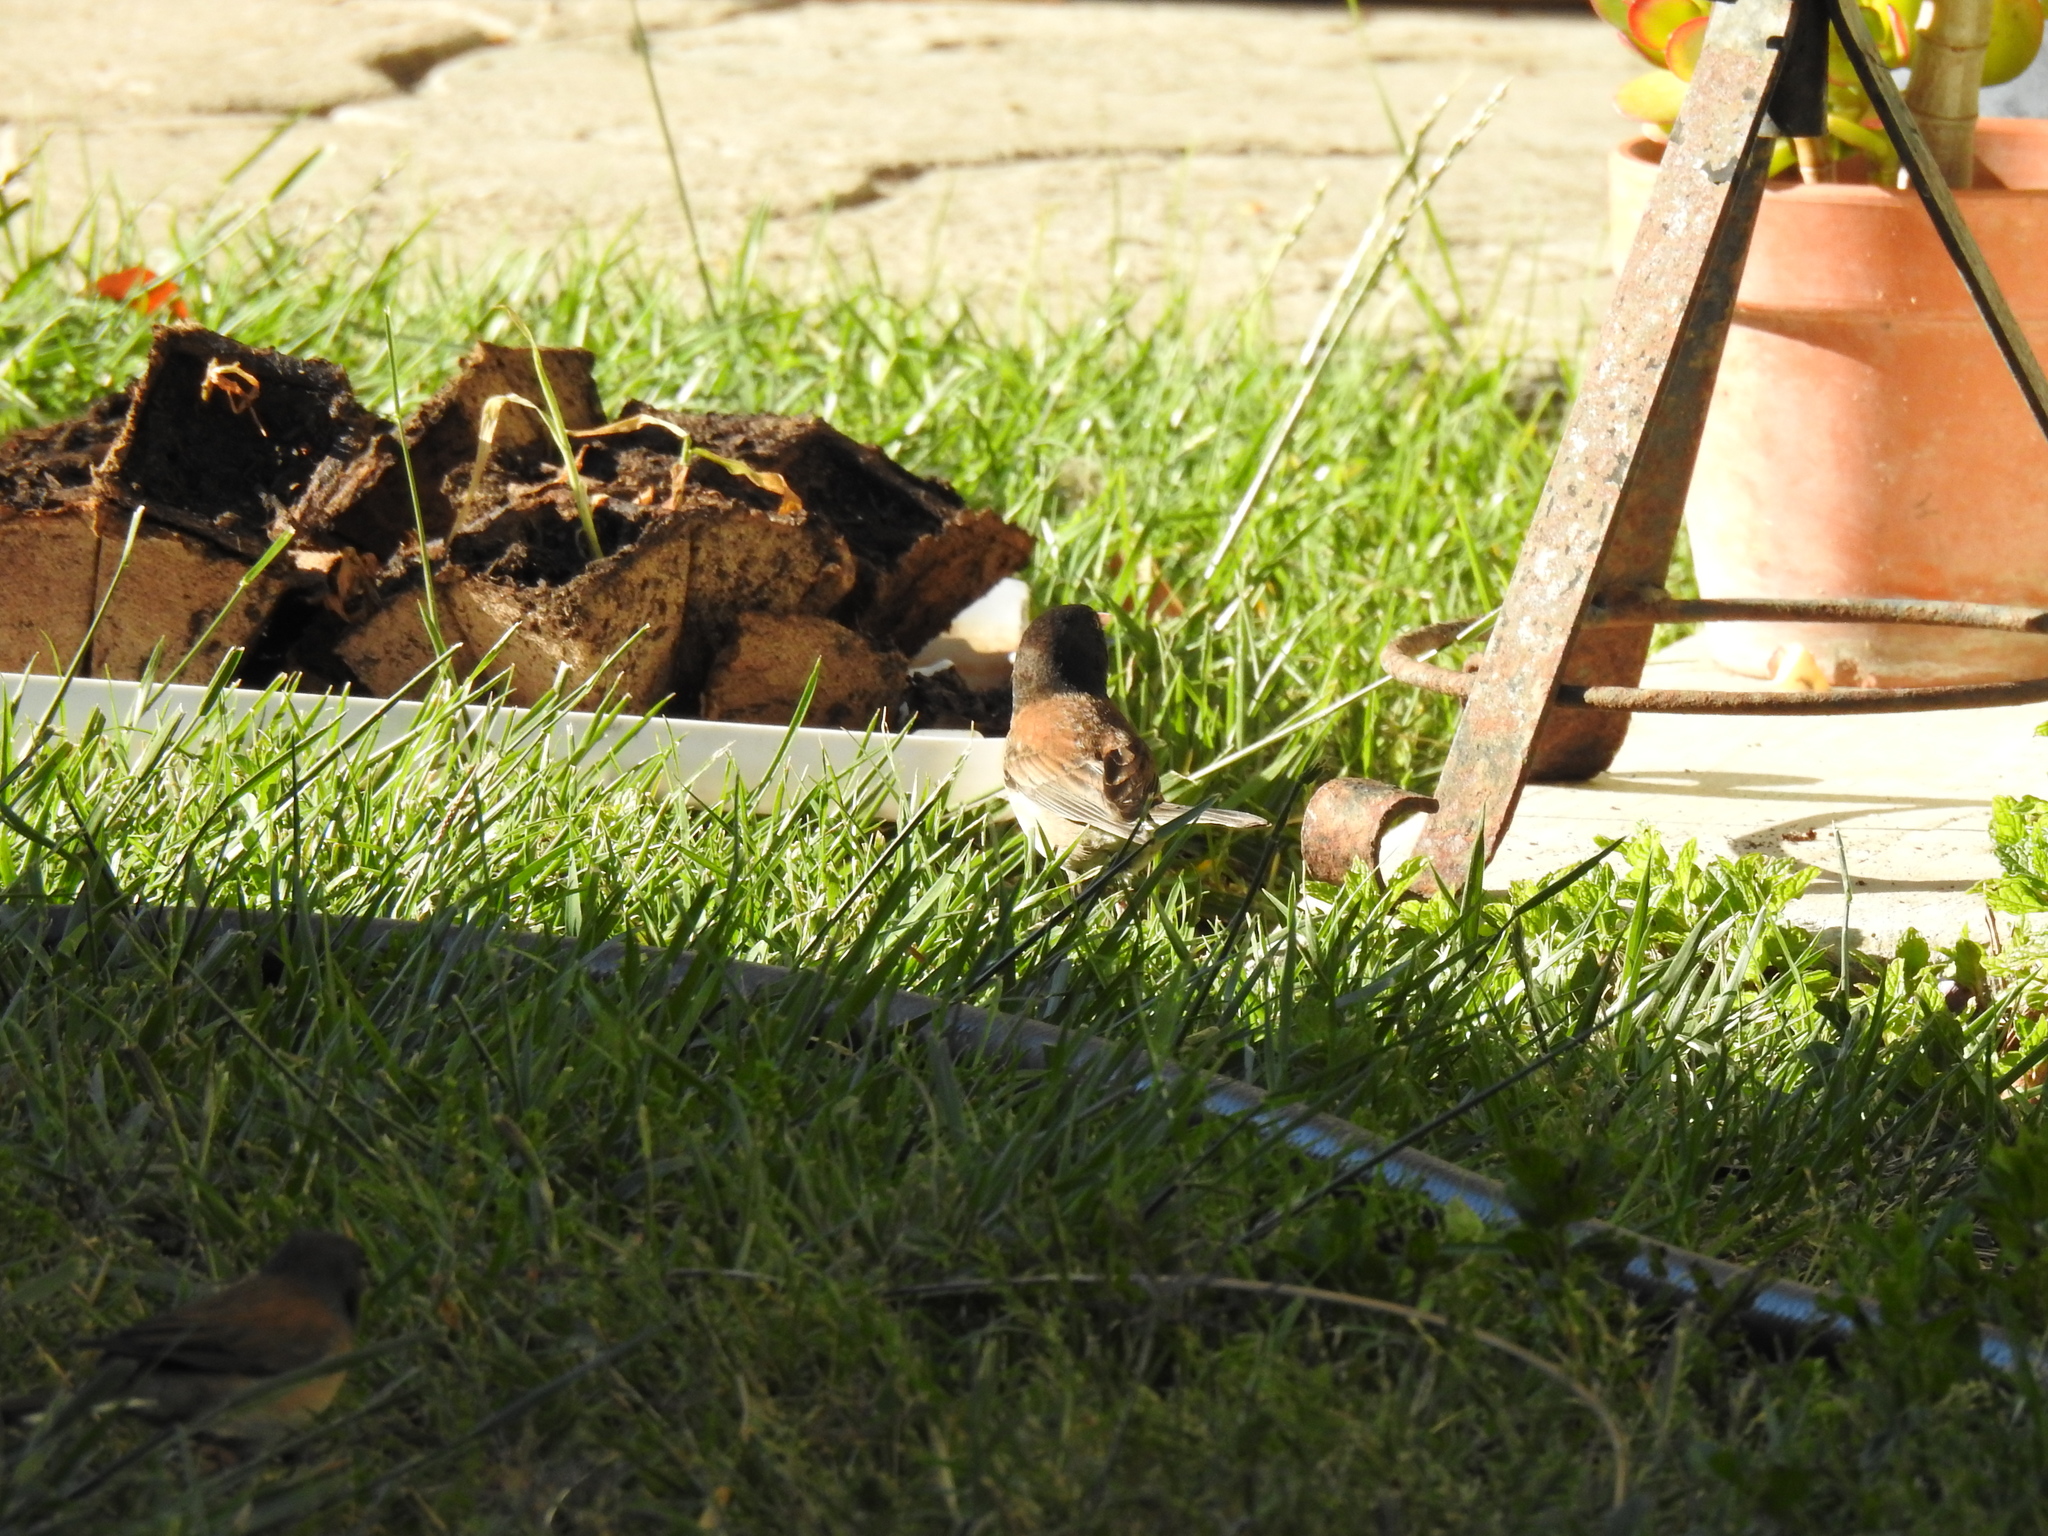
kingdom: Animalia
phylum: Chordata
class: Aves
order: Passeriformes
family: Passerellidae
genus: Junco
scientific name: Junco hyemalis
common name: Dark-eyed junco
